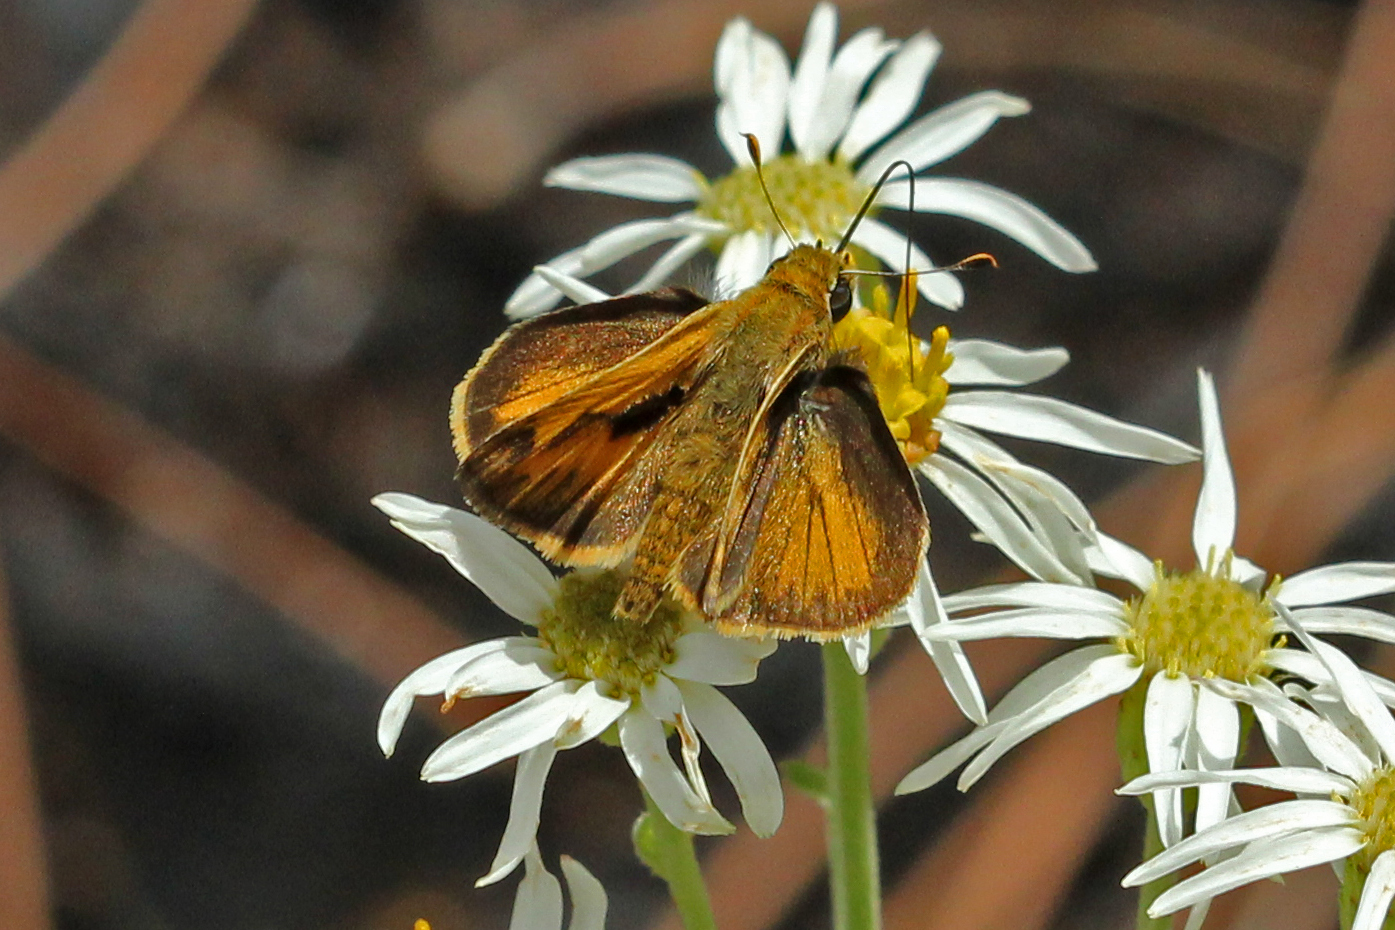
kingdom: Animalia
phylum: Arthropoda
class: Insecta
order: Lepidoptera
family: Hesperiidae
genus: Polites
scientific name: Polites vibex
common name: Whirlabout
